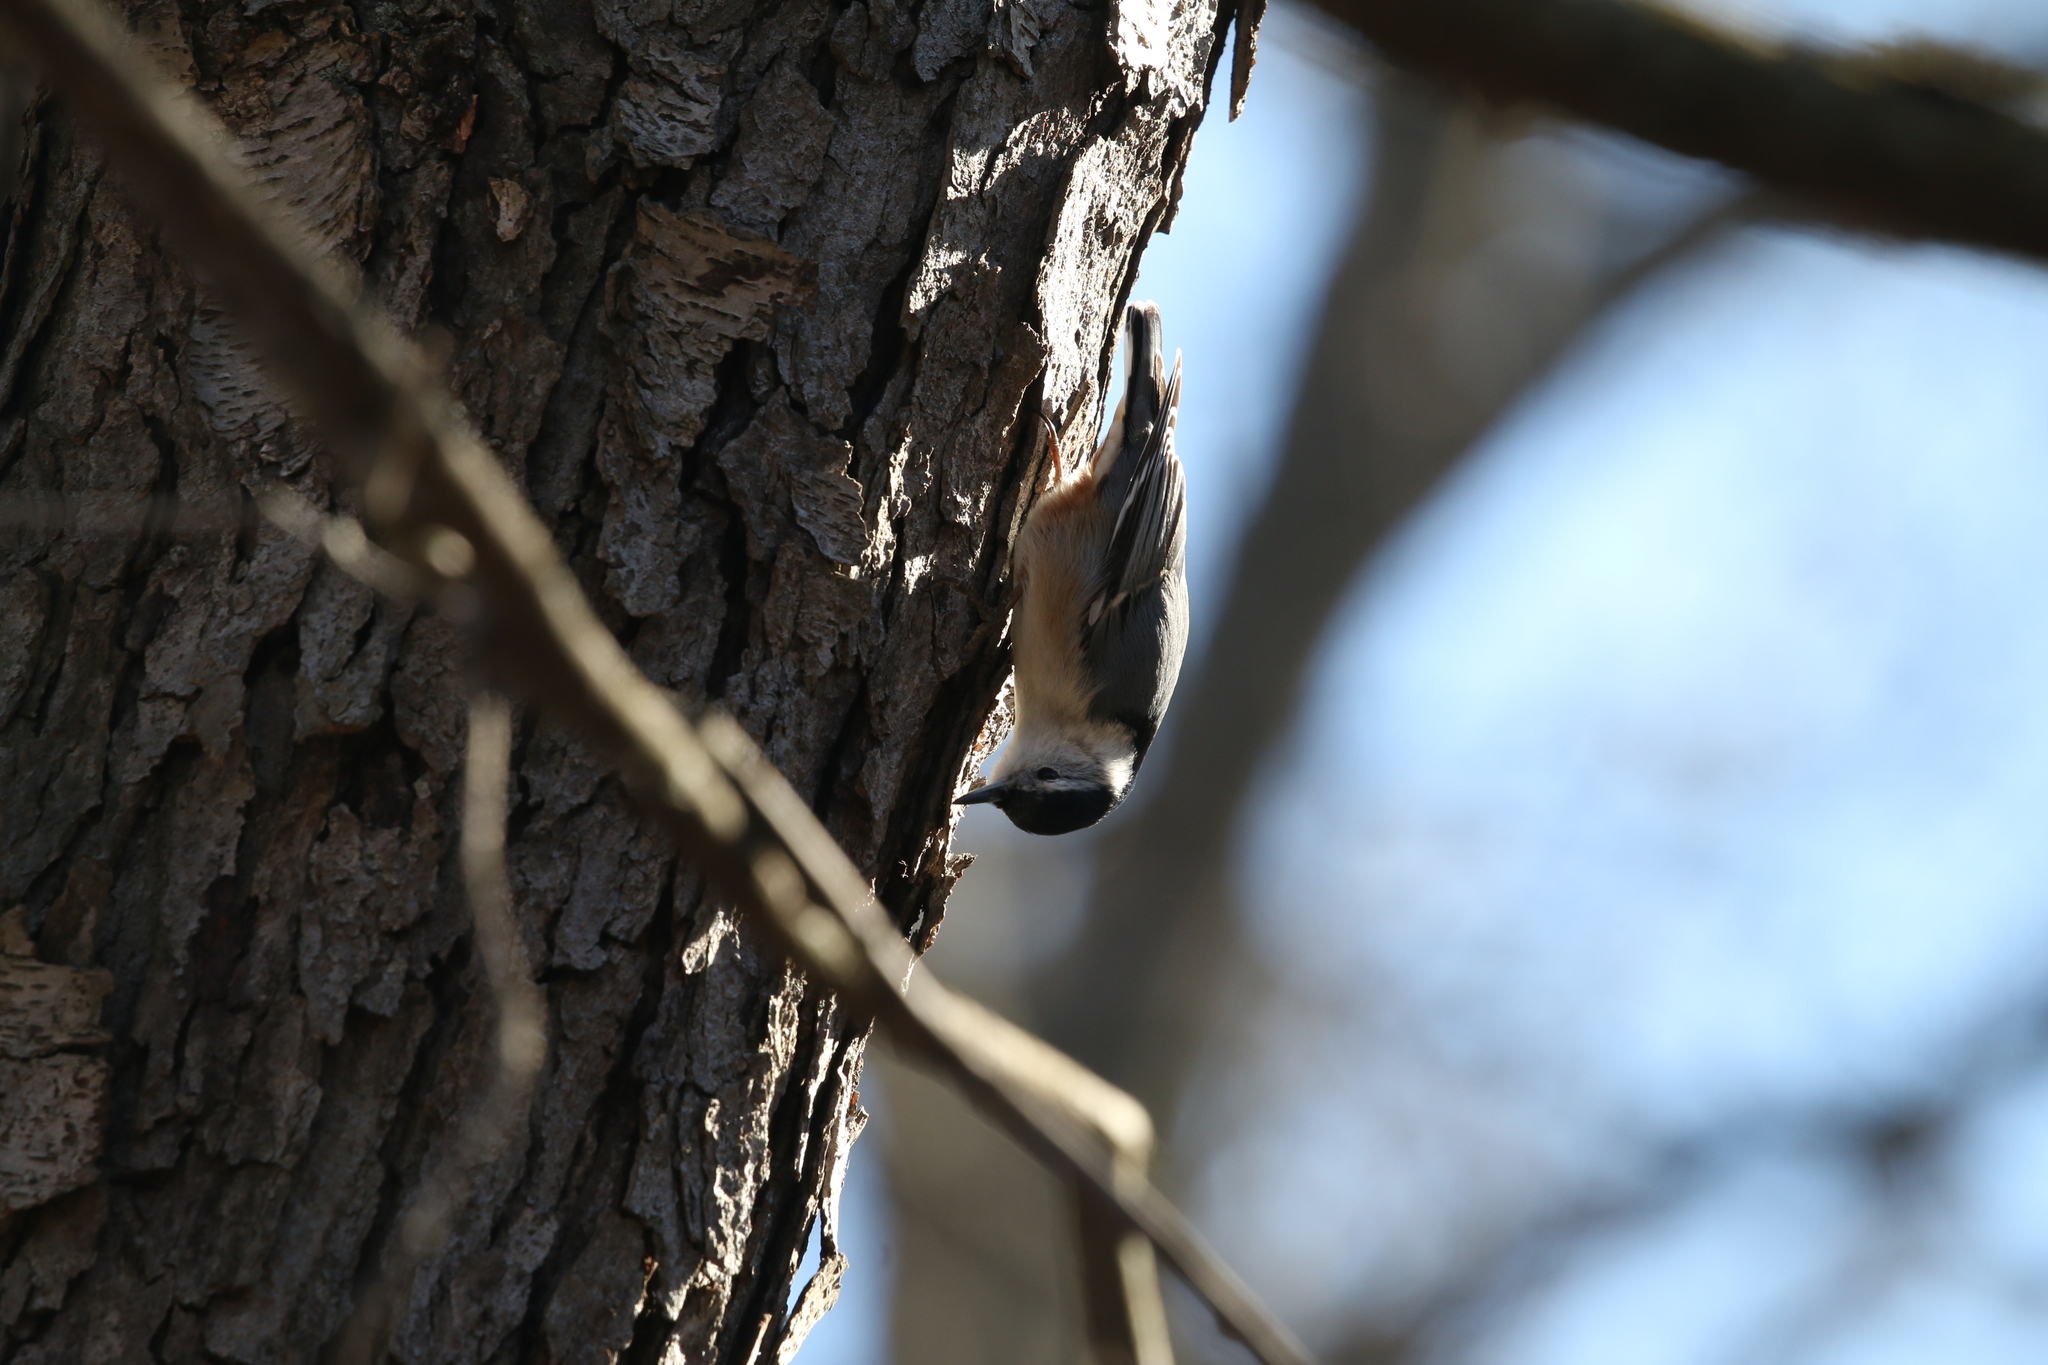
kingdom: Animalia
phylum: Chordata
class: Aves
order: Passeriformes
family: Sittidae
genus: Sitta
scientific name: Sitta carolinensis
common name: White-breasted nuthatch
